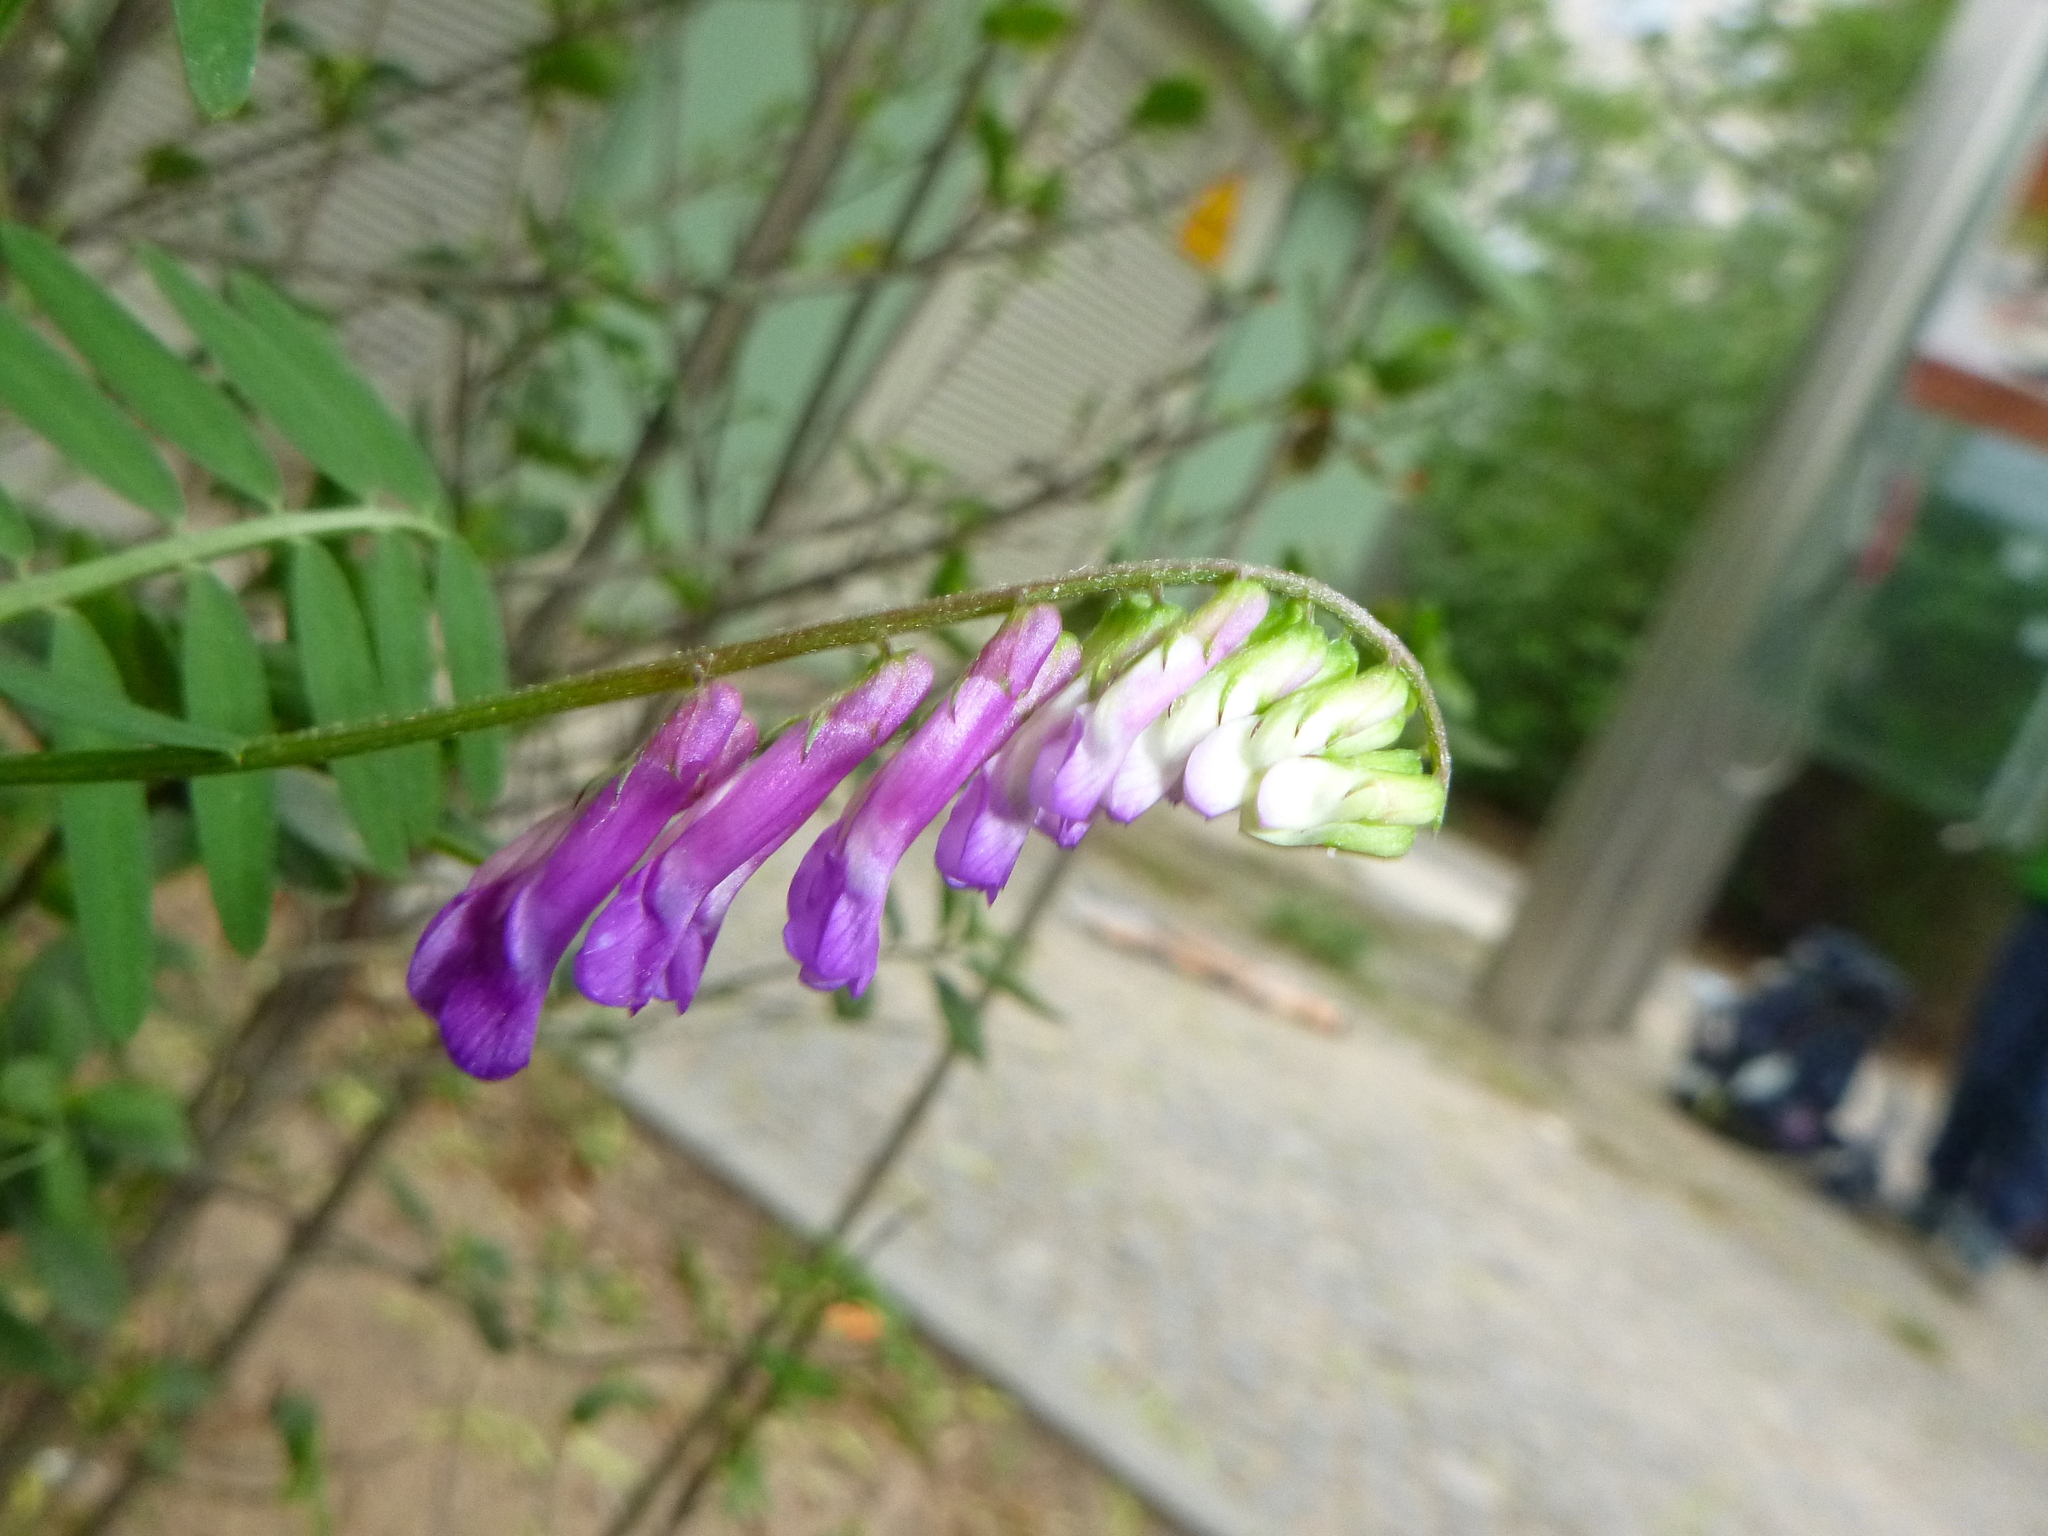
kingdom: Plantae
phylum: Tracheophyta
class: Magnoliopsida
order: Fabales
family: Fabaceae
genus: Vicia
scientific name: Vicia villosa
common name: Fodder vetch
